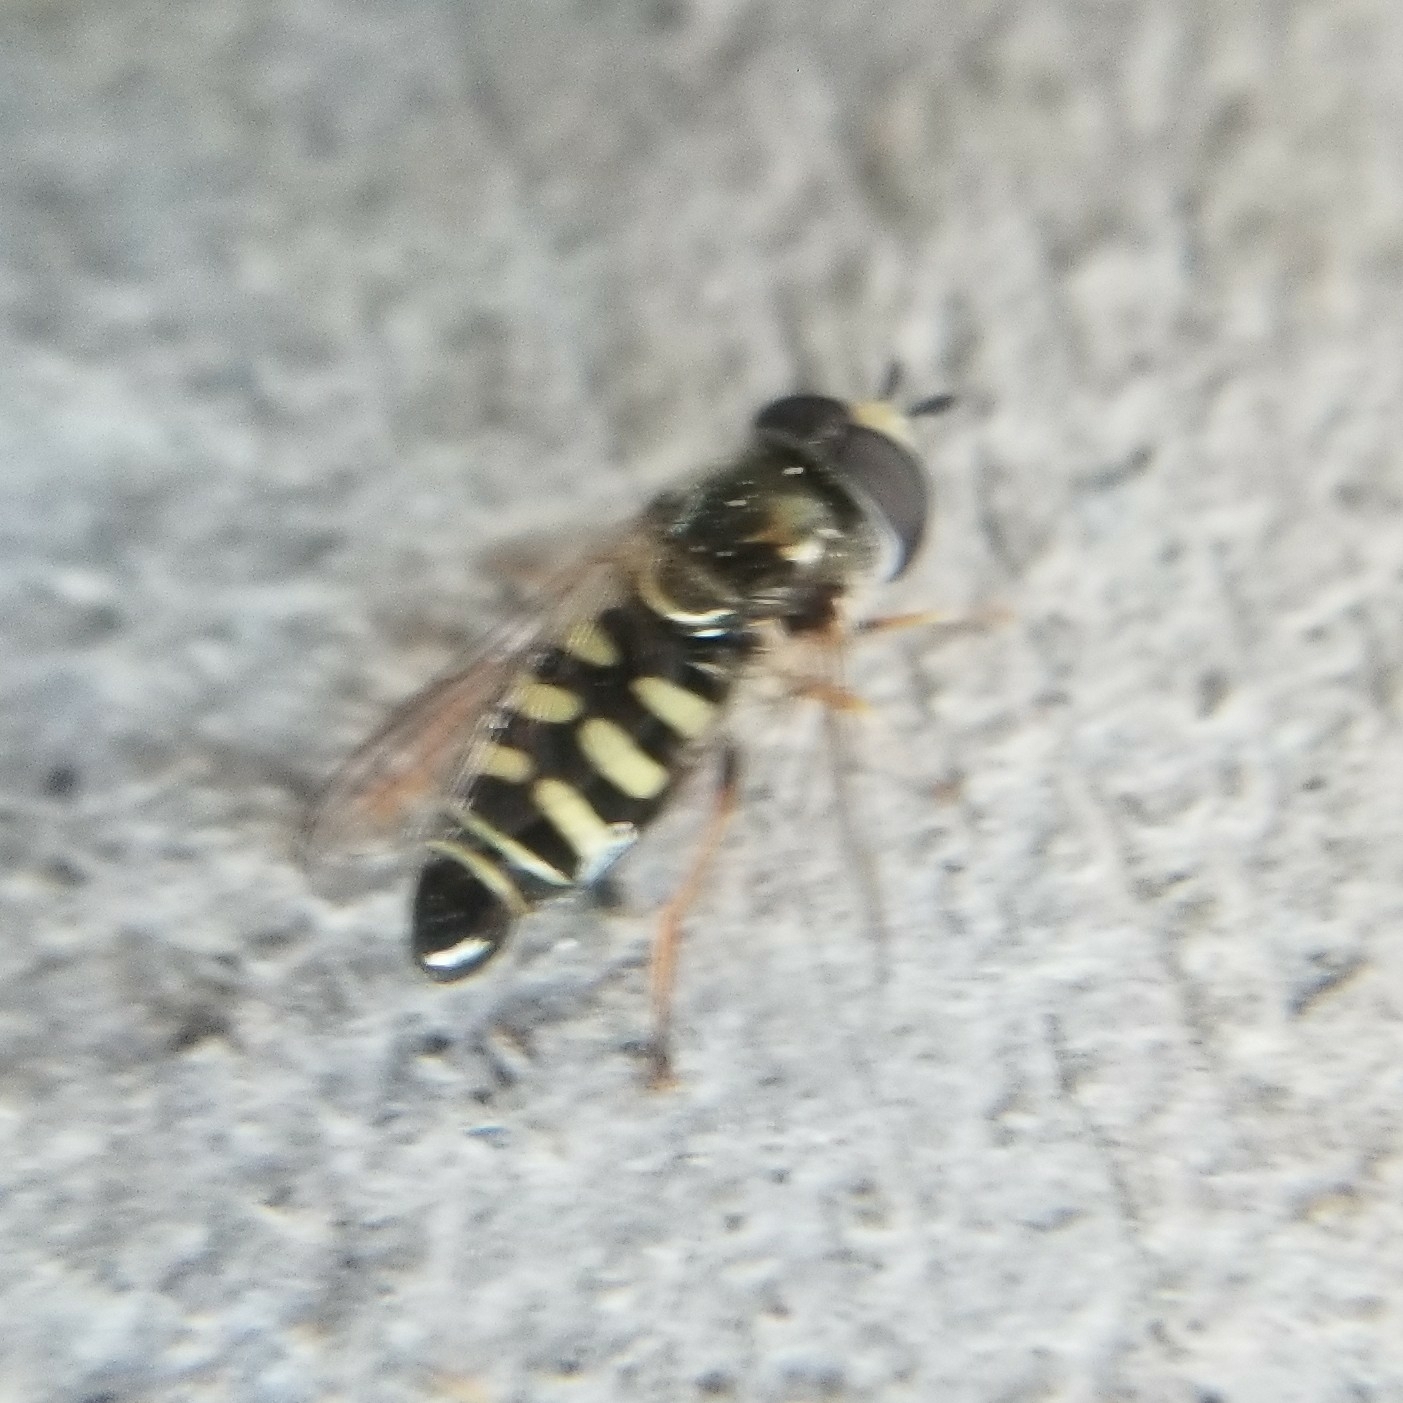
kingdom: Animalia
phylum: Arthropoda
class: Insecta
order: Diptera
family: Syrphidae
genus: Eupeodes
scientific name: Eupeodes volucris
